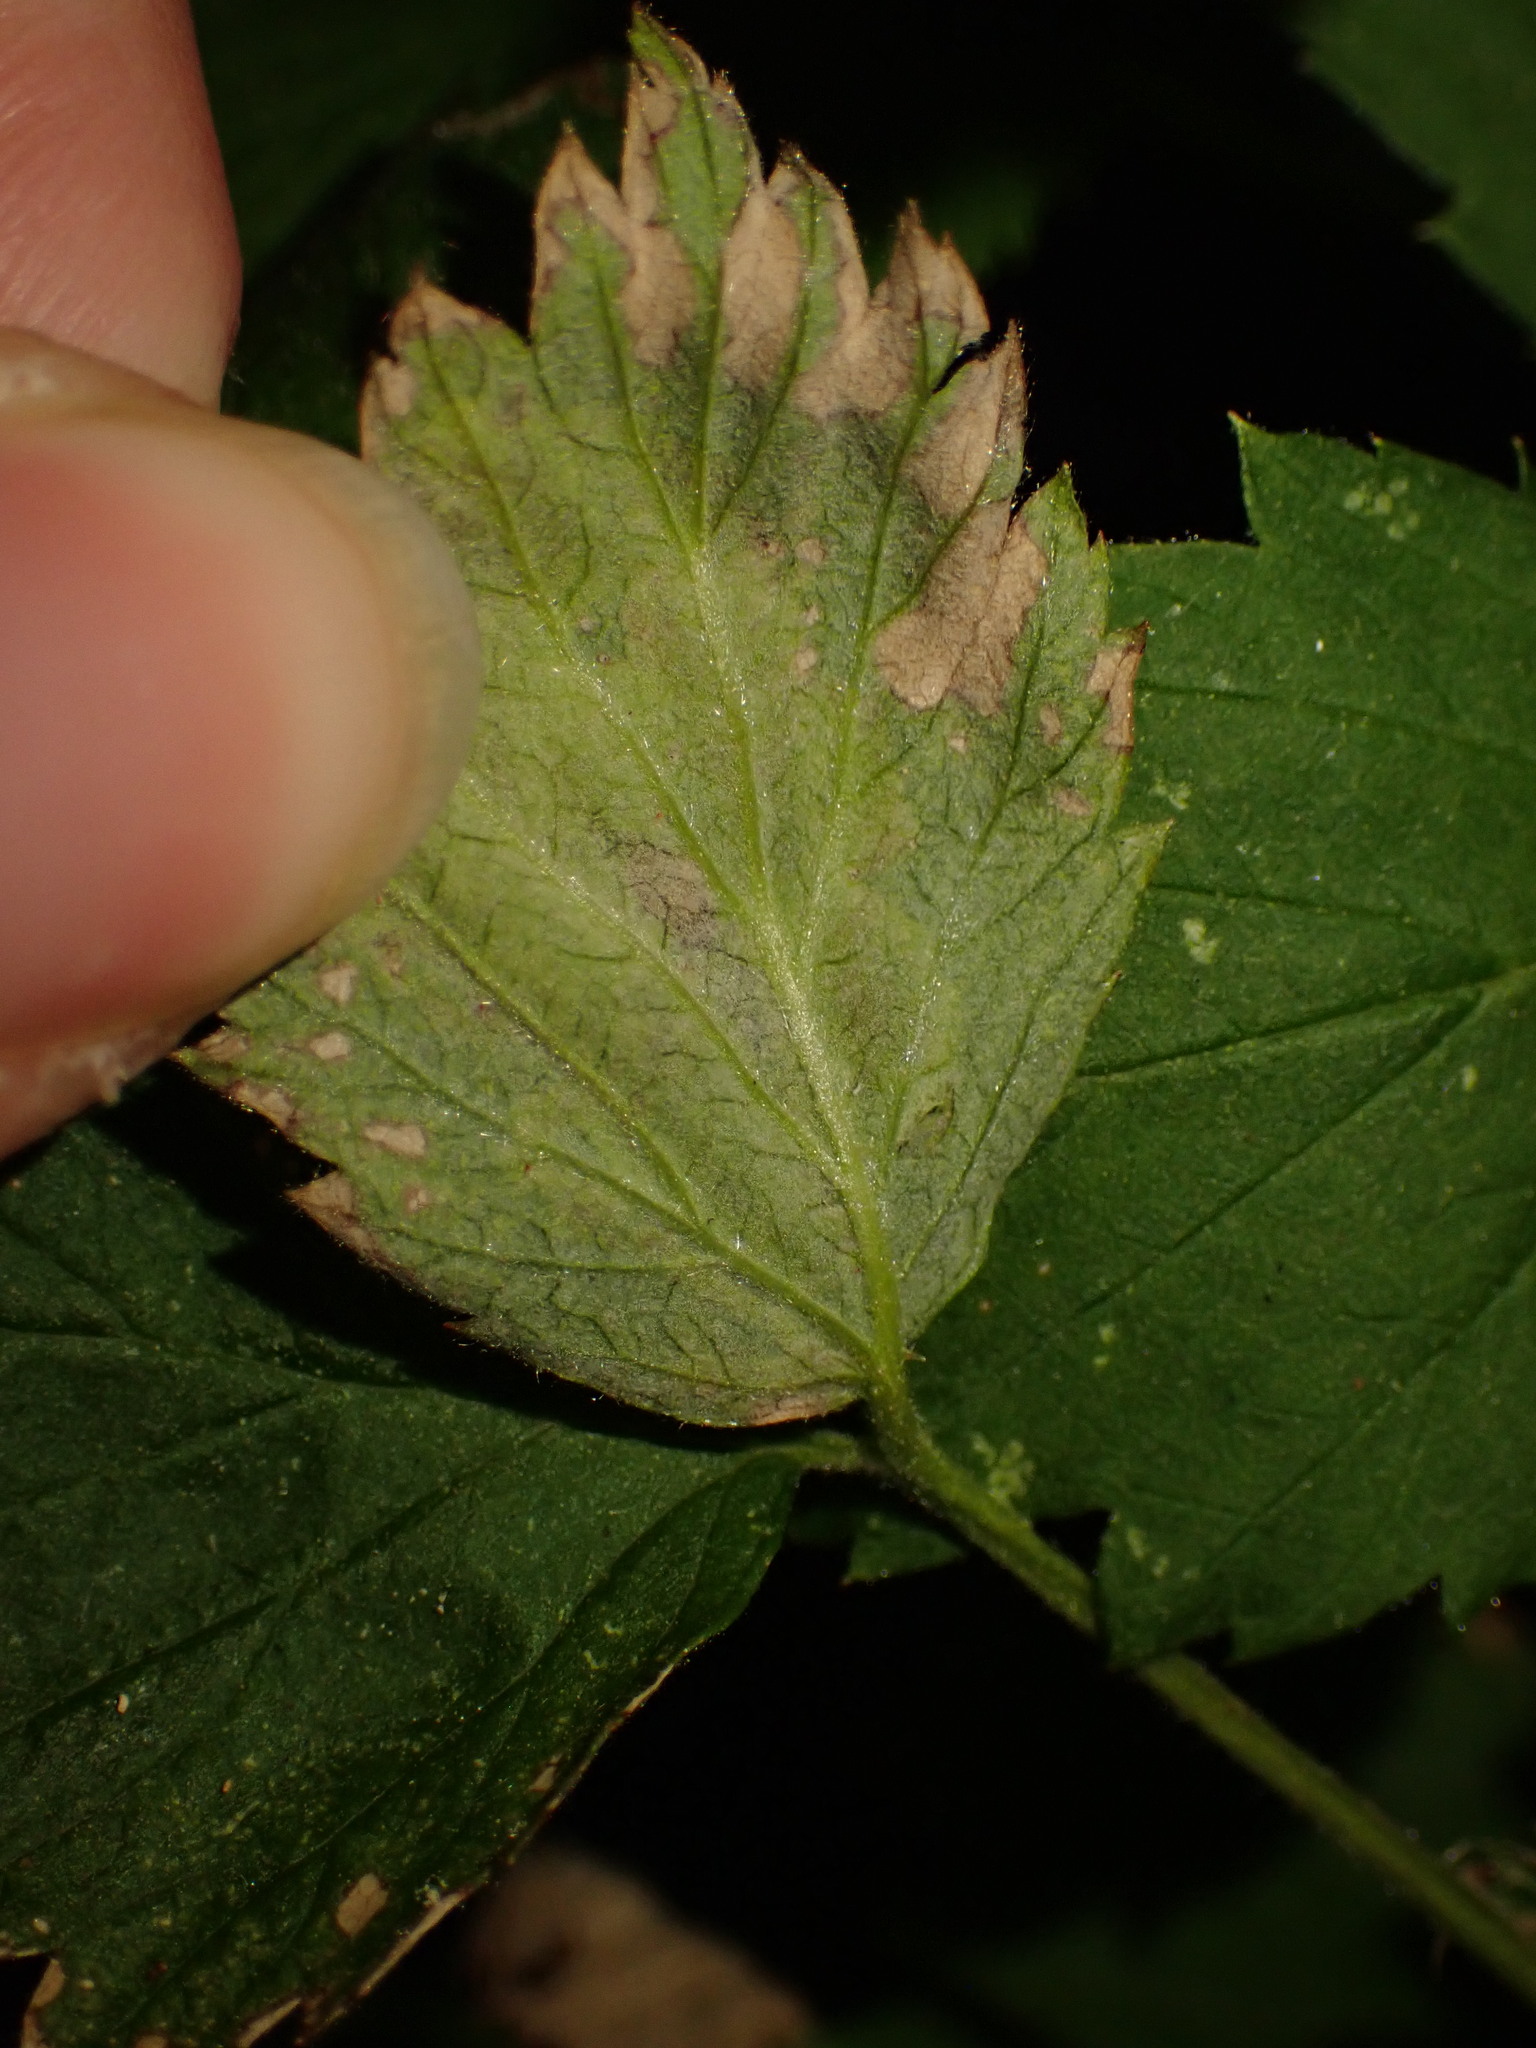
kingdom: Animalia
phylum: Arthropoda
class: Insecta
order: Diptera
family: Agromyzidae
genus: Agromyza
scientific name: Agromyza princei
